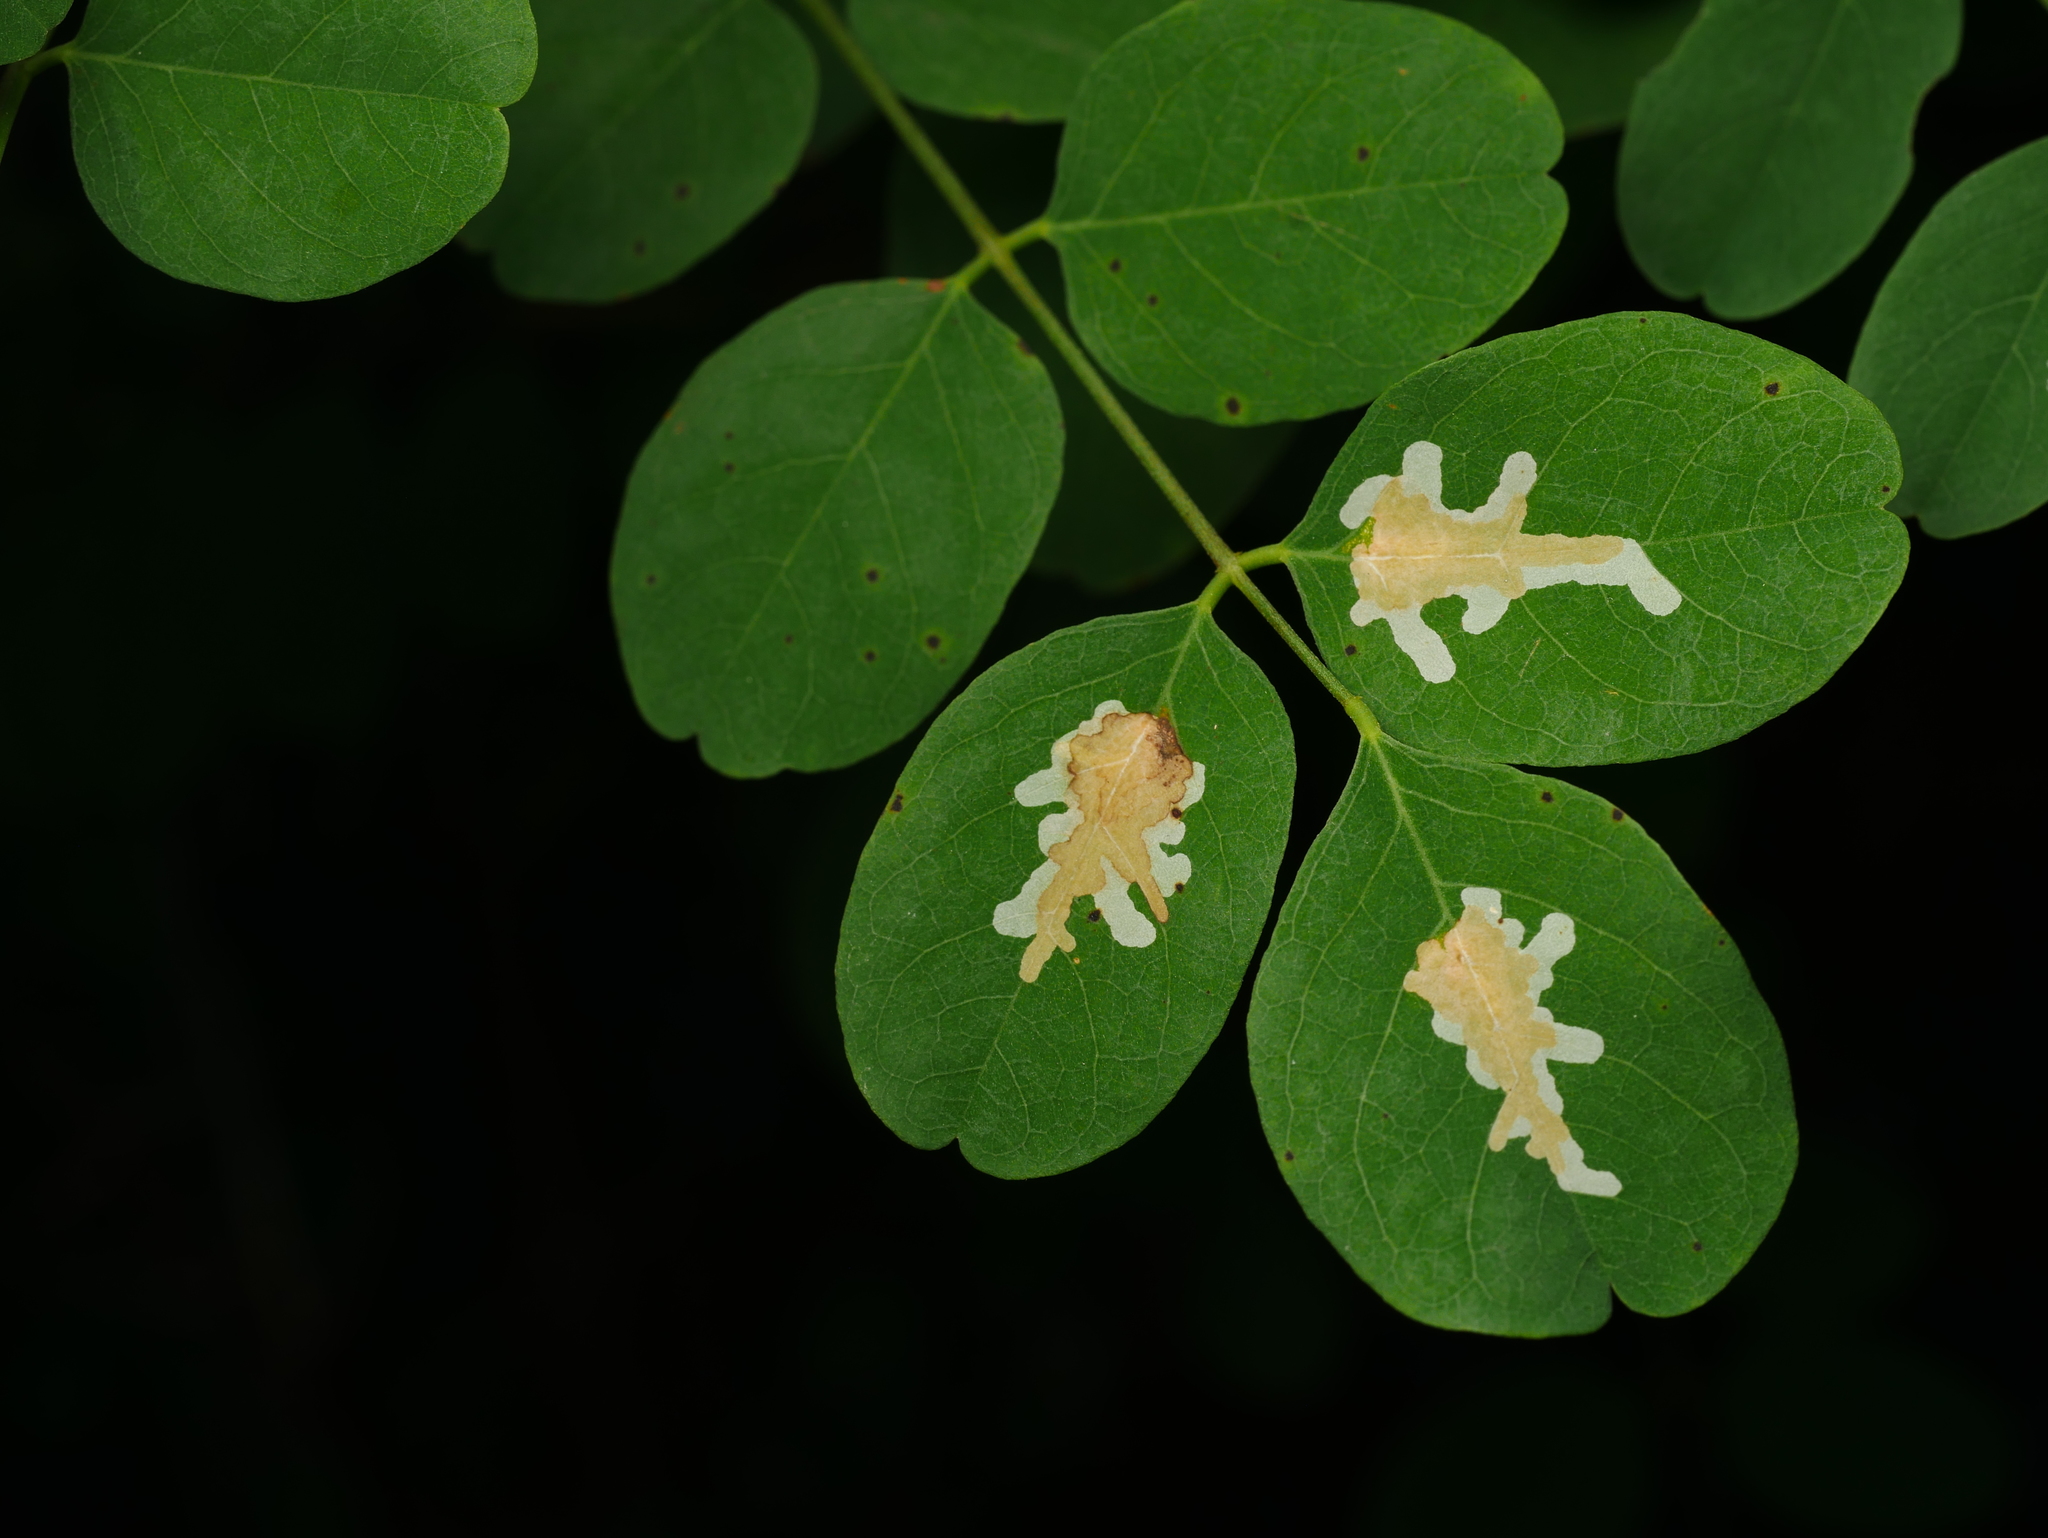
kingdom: Animalia
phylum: Arthropoda
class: Insecta
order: Lepidoptera
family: Gracillariidae
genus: Parectopa
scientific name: Parectopa robiniella
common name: Locust digitate leafminer
